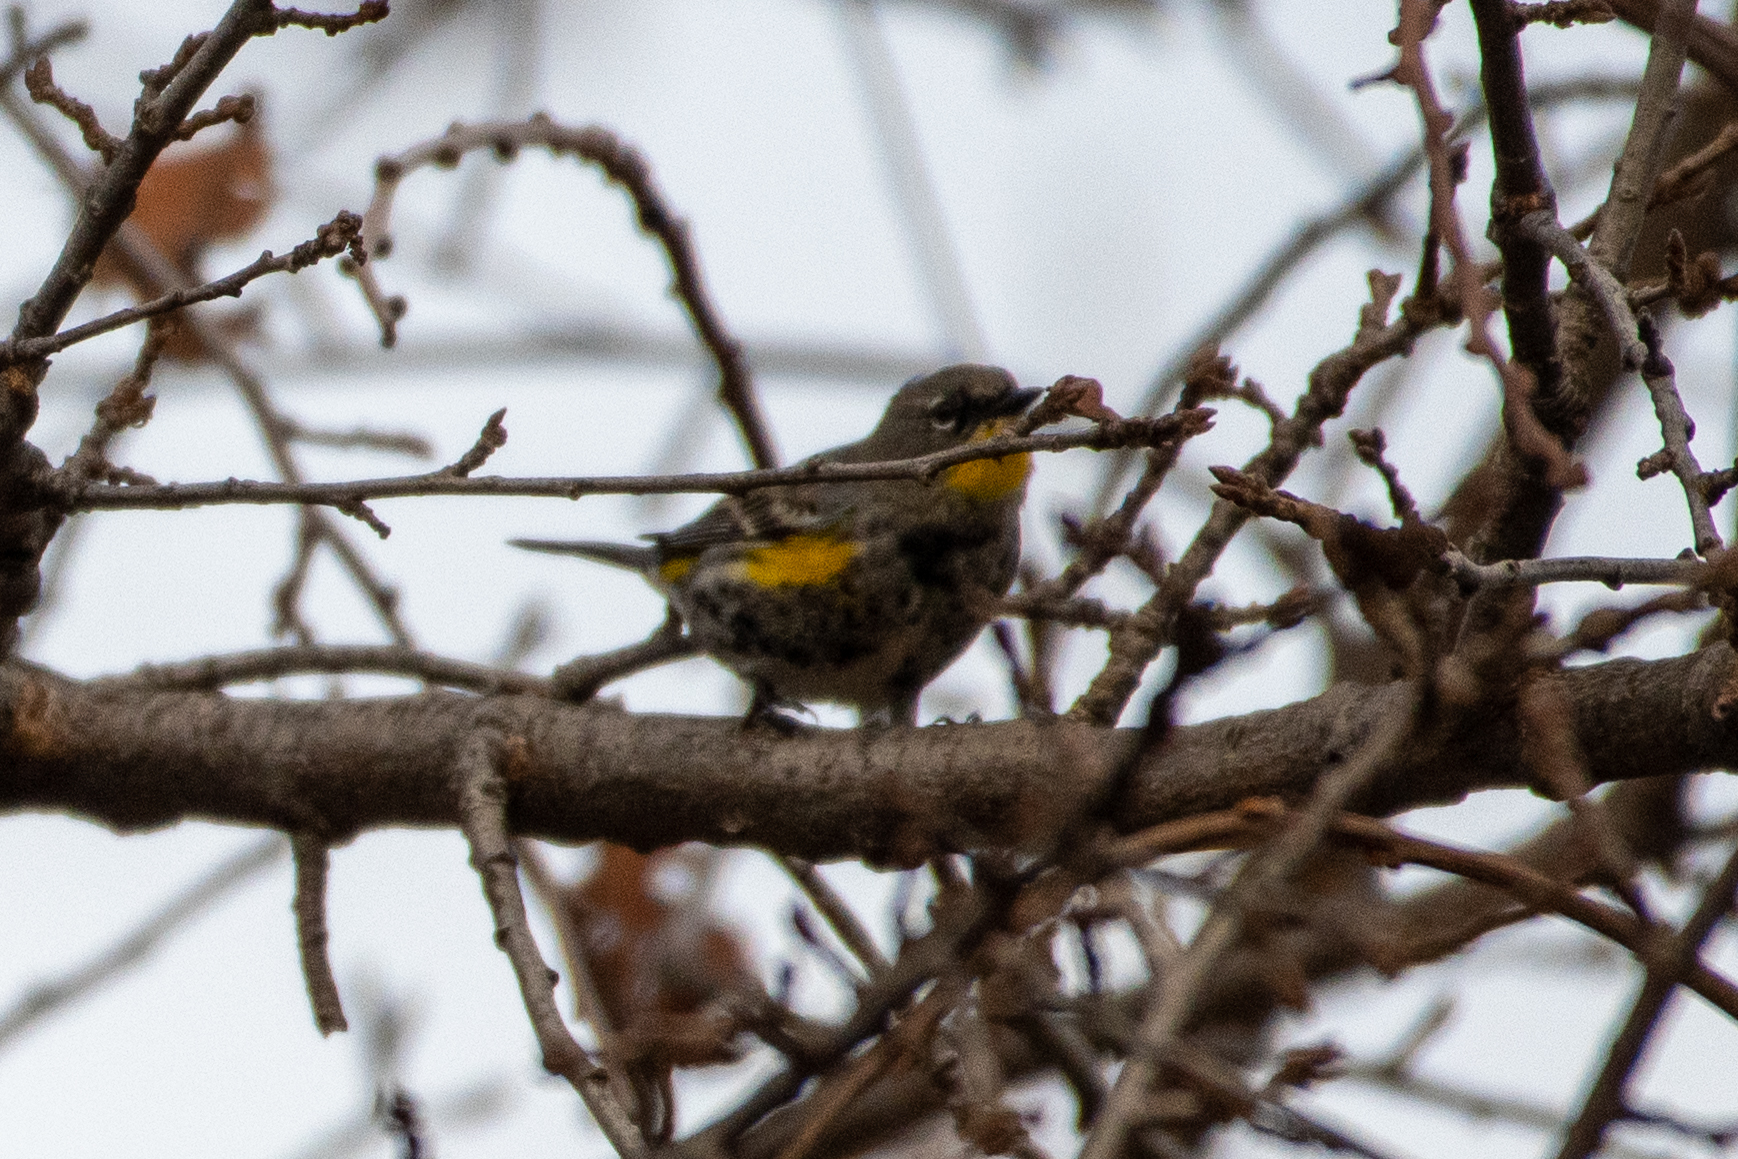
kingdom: Animalia
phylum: Chordata
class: Aves
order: Passeriformes
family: Parulidae
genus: Setophaga
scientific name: Setophaga coronata
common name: Myrtle warbler
